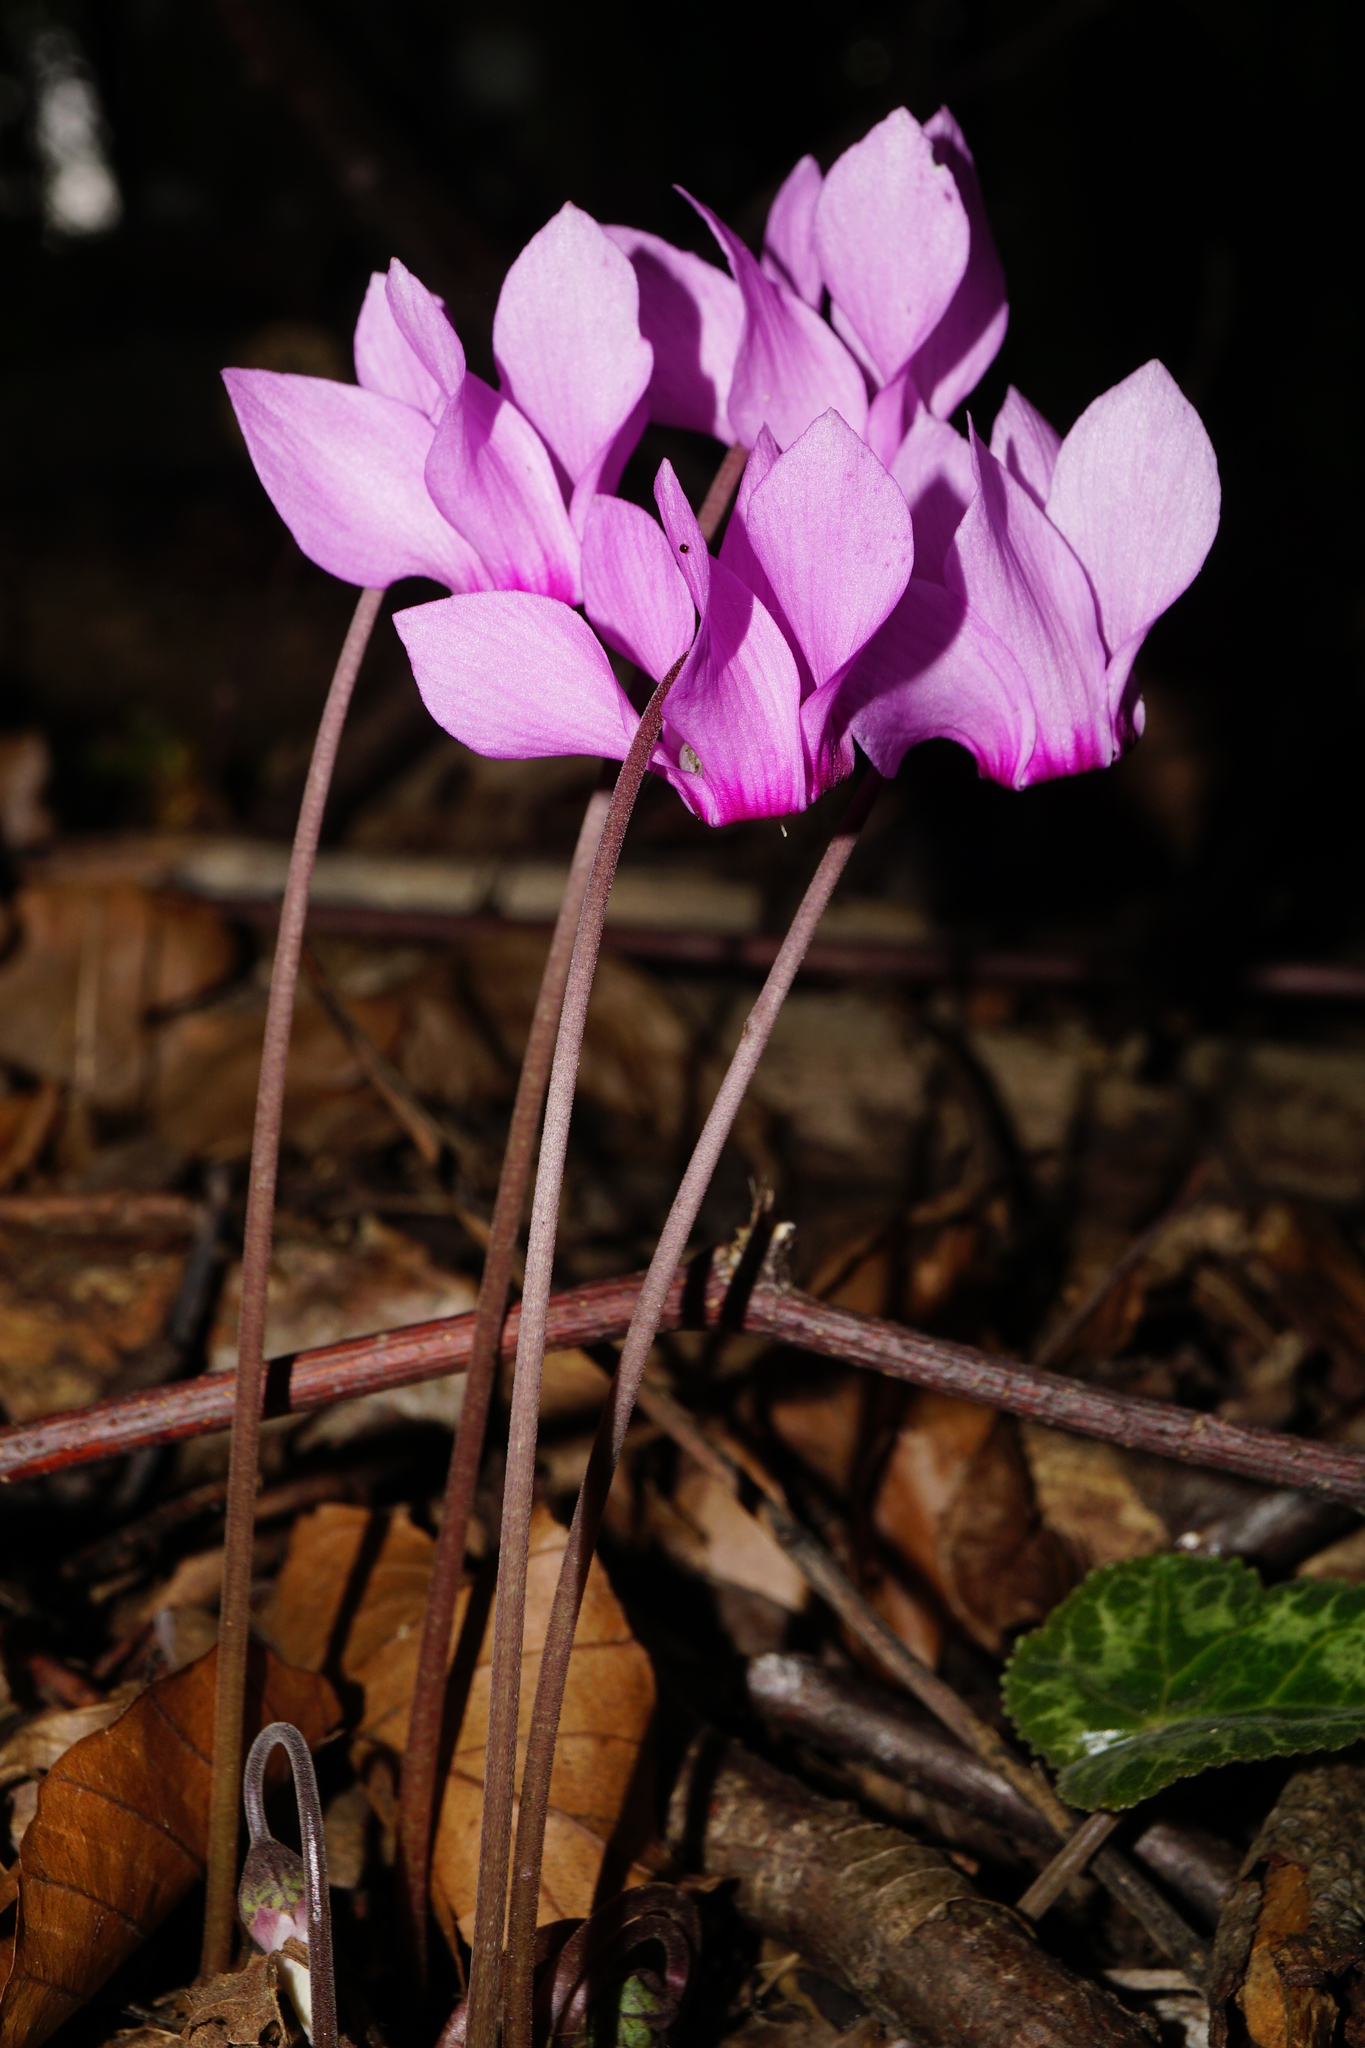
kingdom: Plantae
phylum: Tracheophyta
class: Magnoliopsida
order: Ericales
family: Primulaceae
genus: Cyclamen
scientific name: Cyclamen purpurascens
